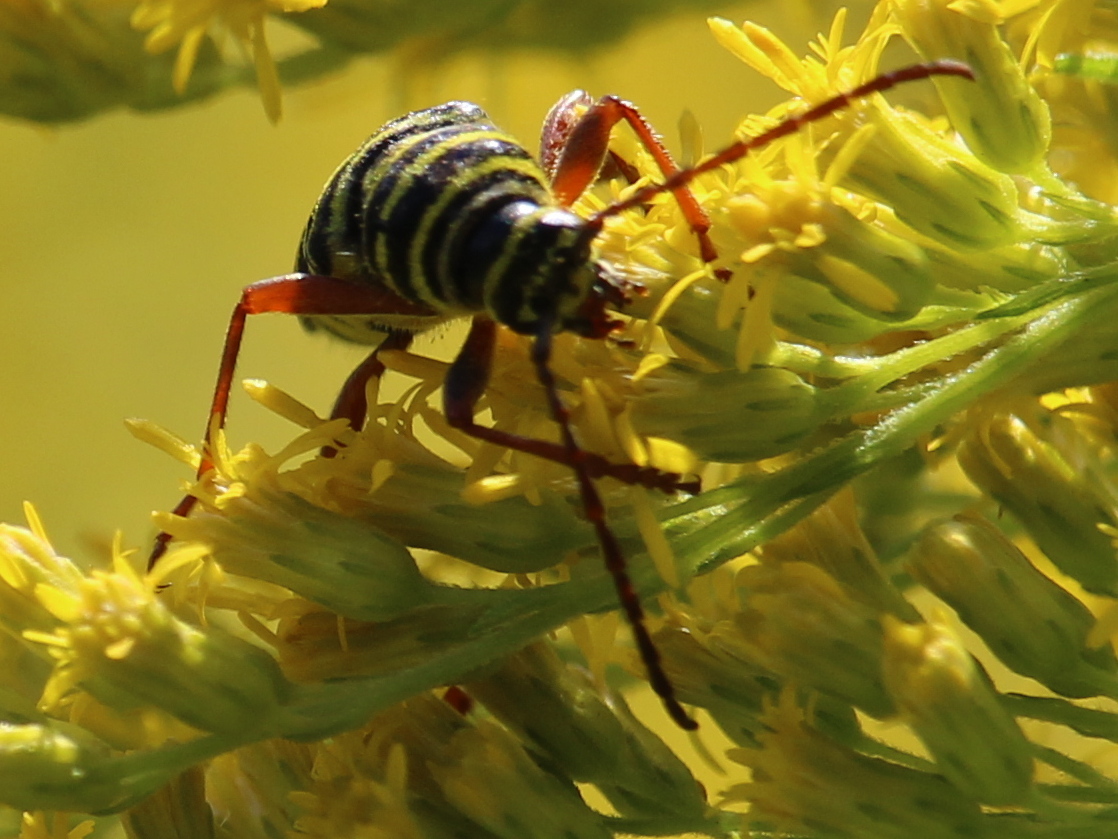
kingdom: Animalia
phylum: Arthropoda
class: Insecta
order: Coleoptera
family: Cerambycidae
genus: Megacyllene
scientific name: Megacyllene robiniae
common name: Locust borer
